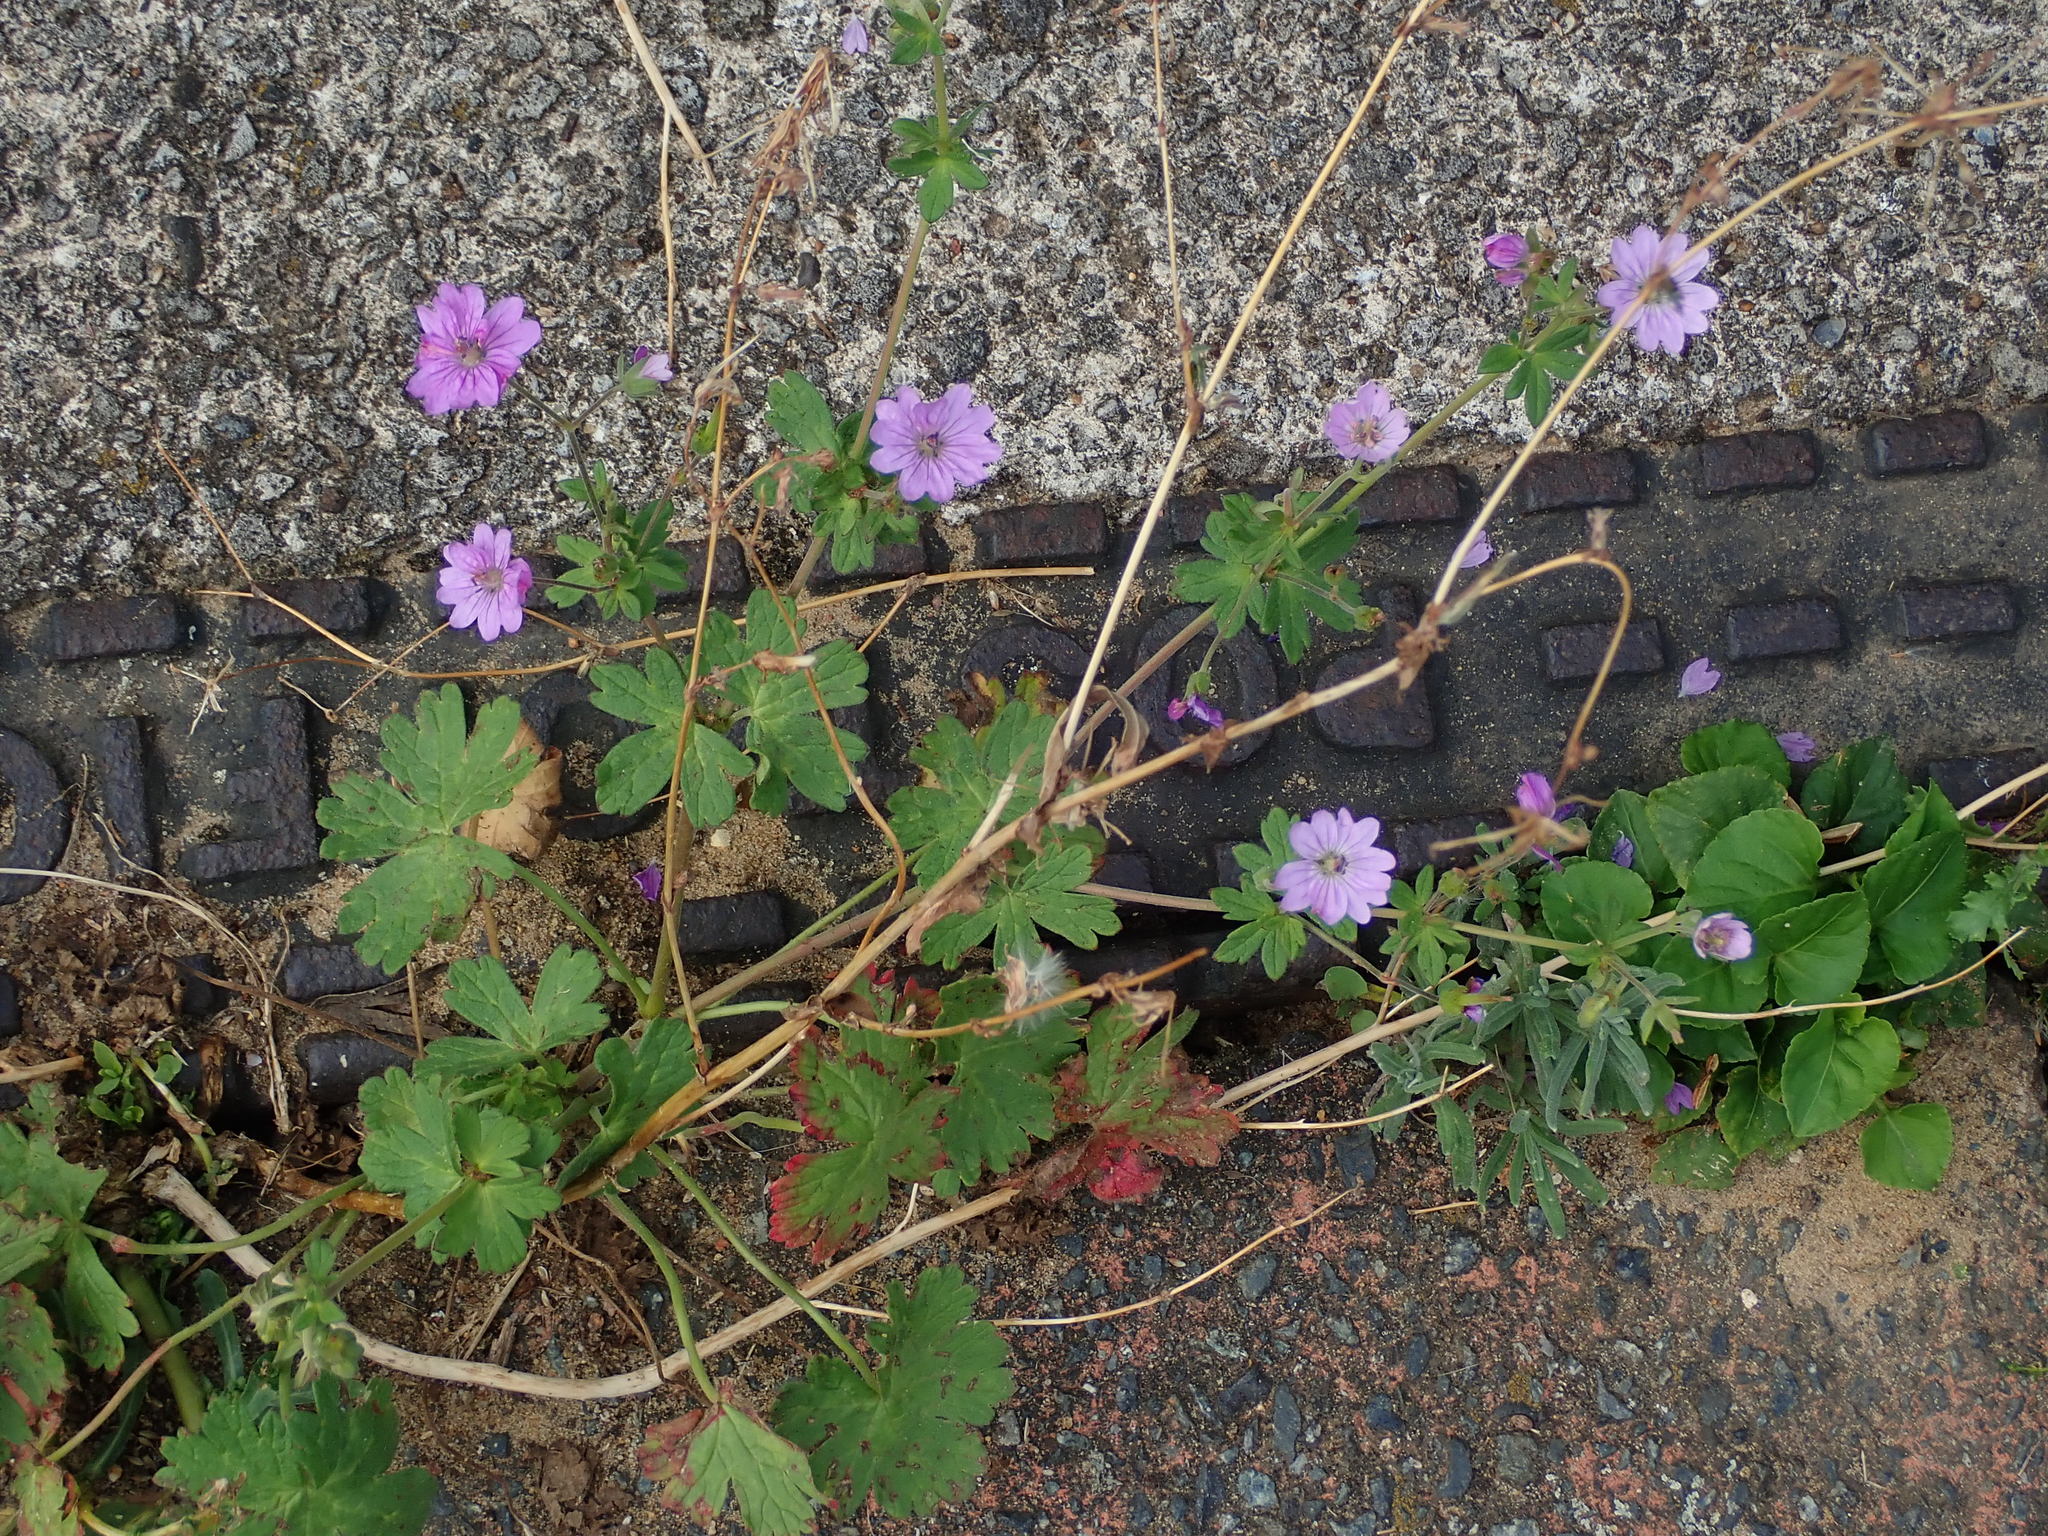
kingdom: Plantae
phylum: Tracheophyta
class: Magnoliopsida
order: Geraniales
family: Geraniaceae
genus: Geranium
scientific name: Geranium pyrenaicum
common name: Hedgerow crane's-bill
